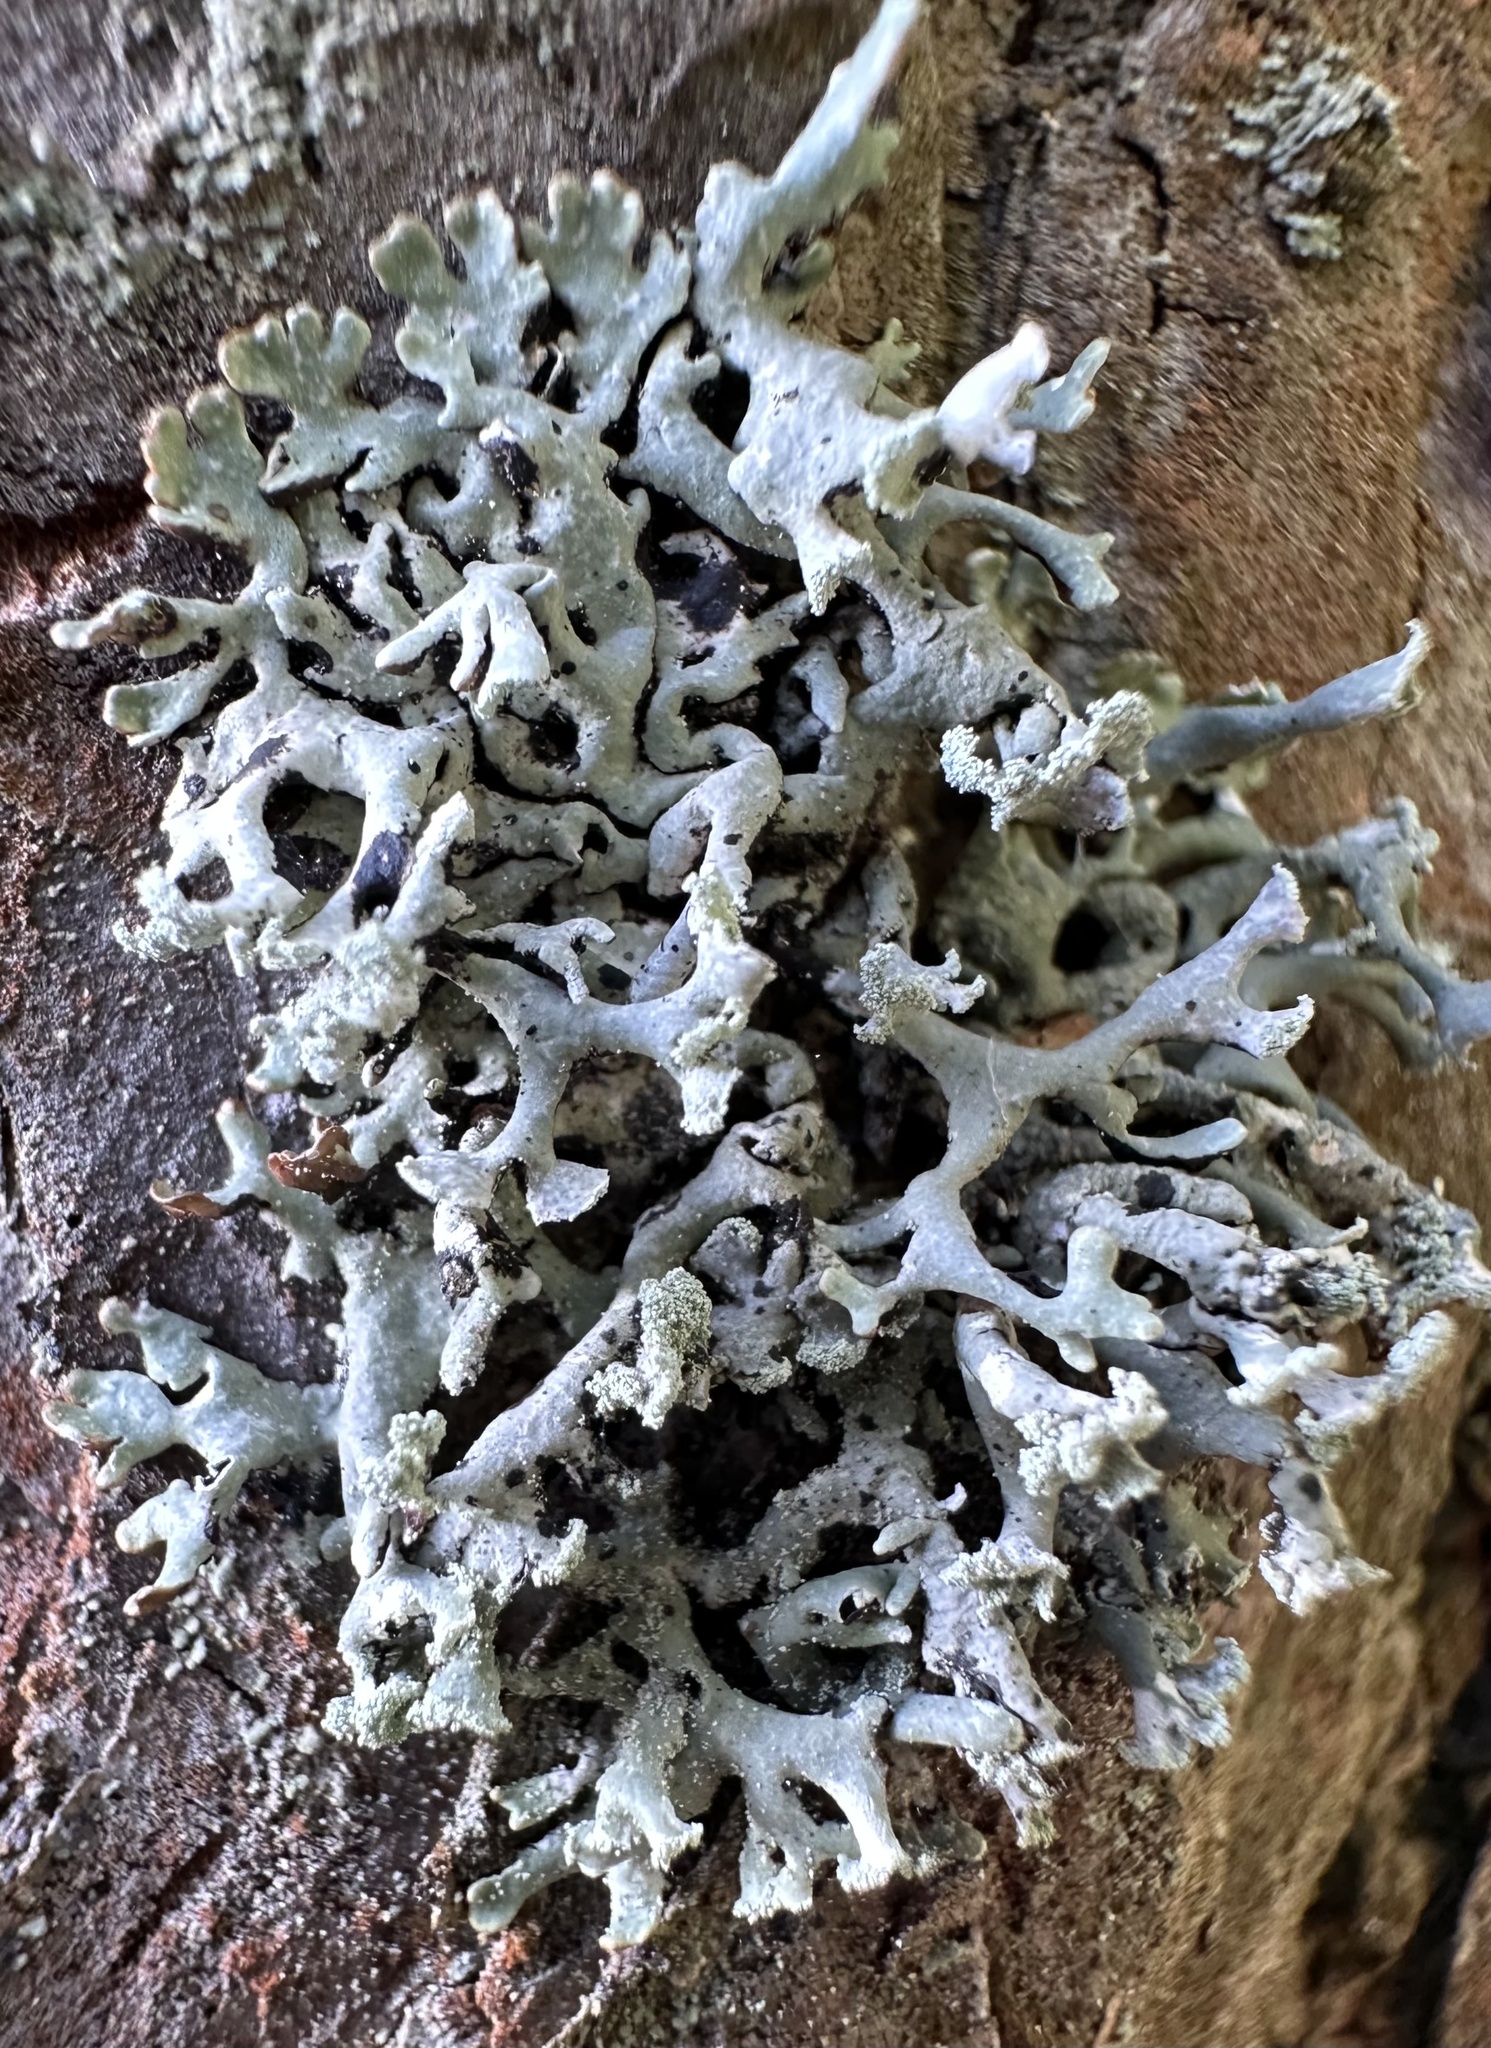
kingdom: Fungi
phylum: Ascomycota
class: Lecanoromycetes
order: Lecanorales
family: Parmeliaceae
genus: Hypogymnia
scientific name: Hypogymnia physodes
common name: Dark crottle
